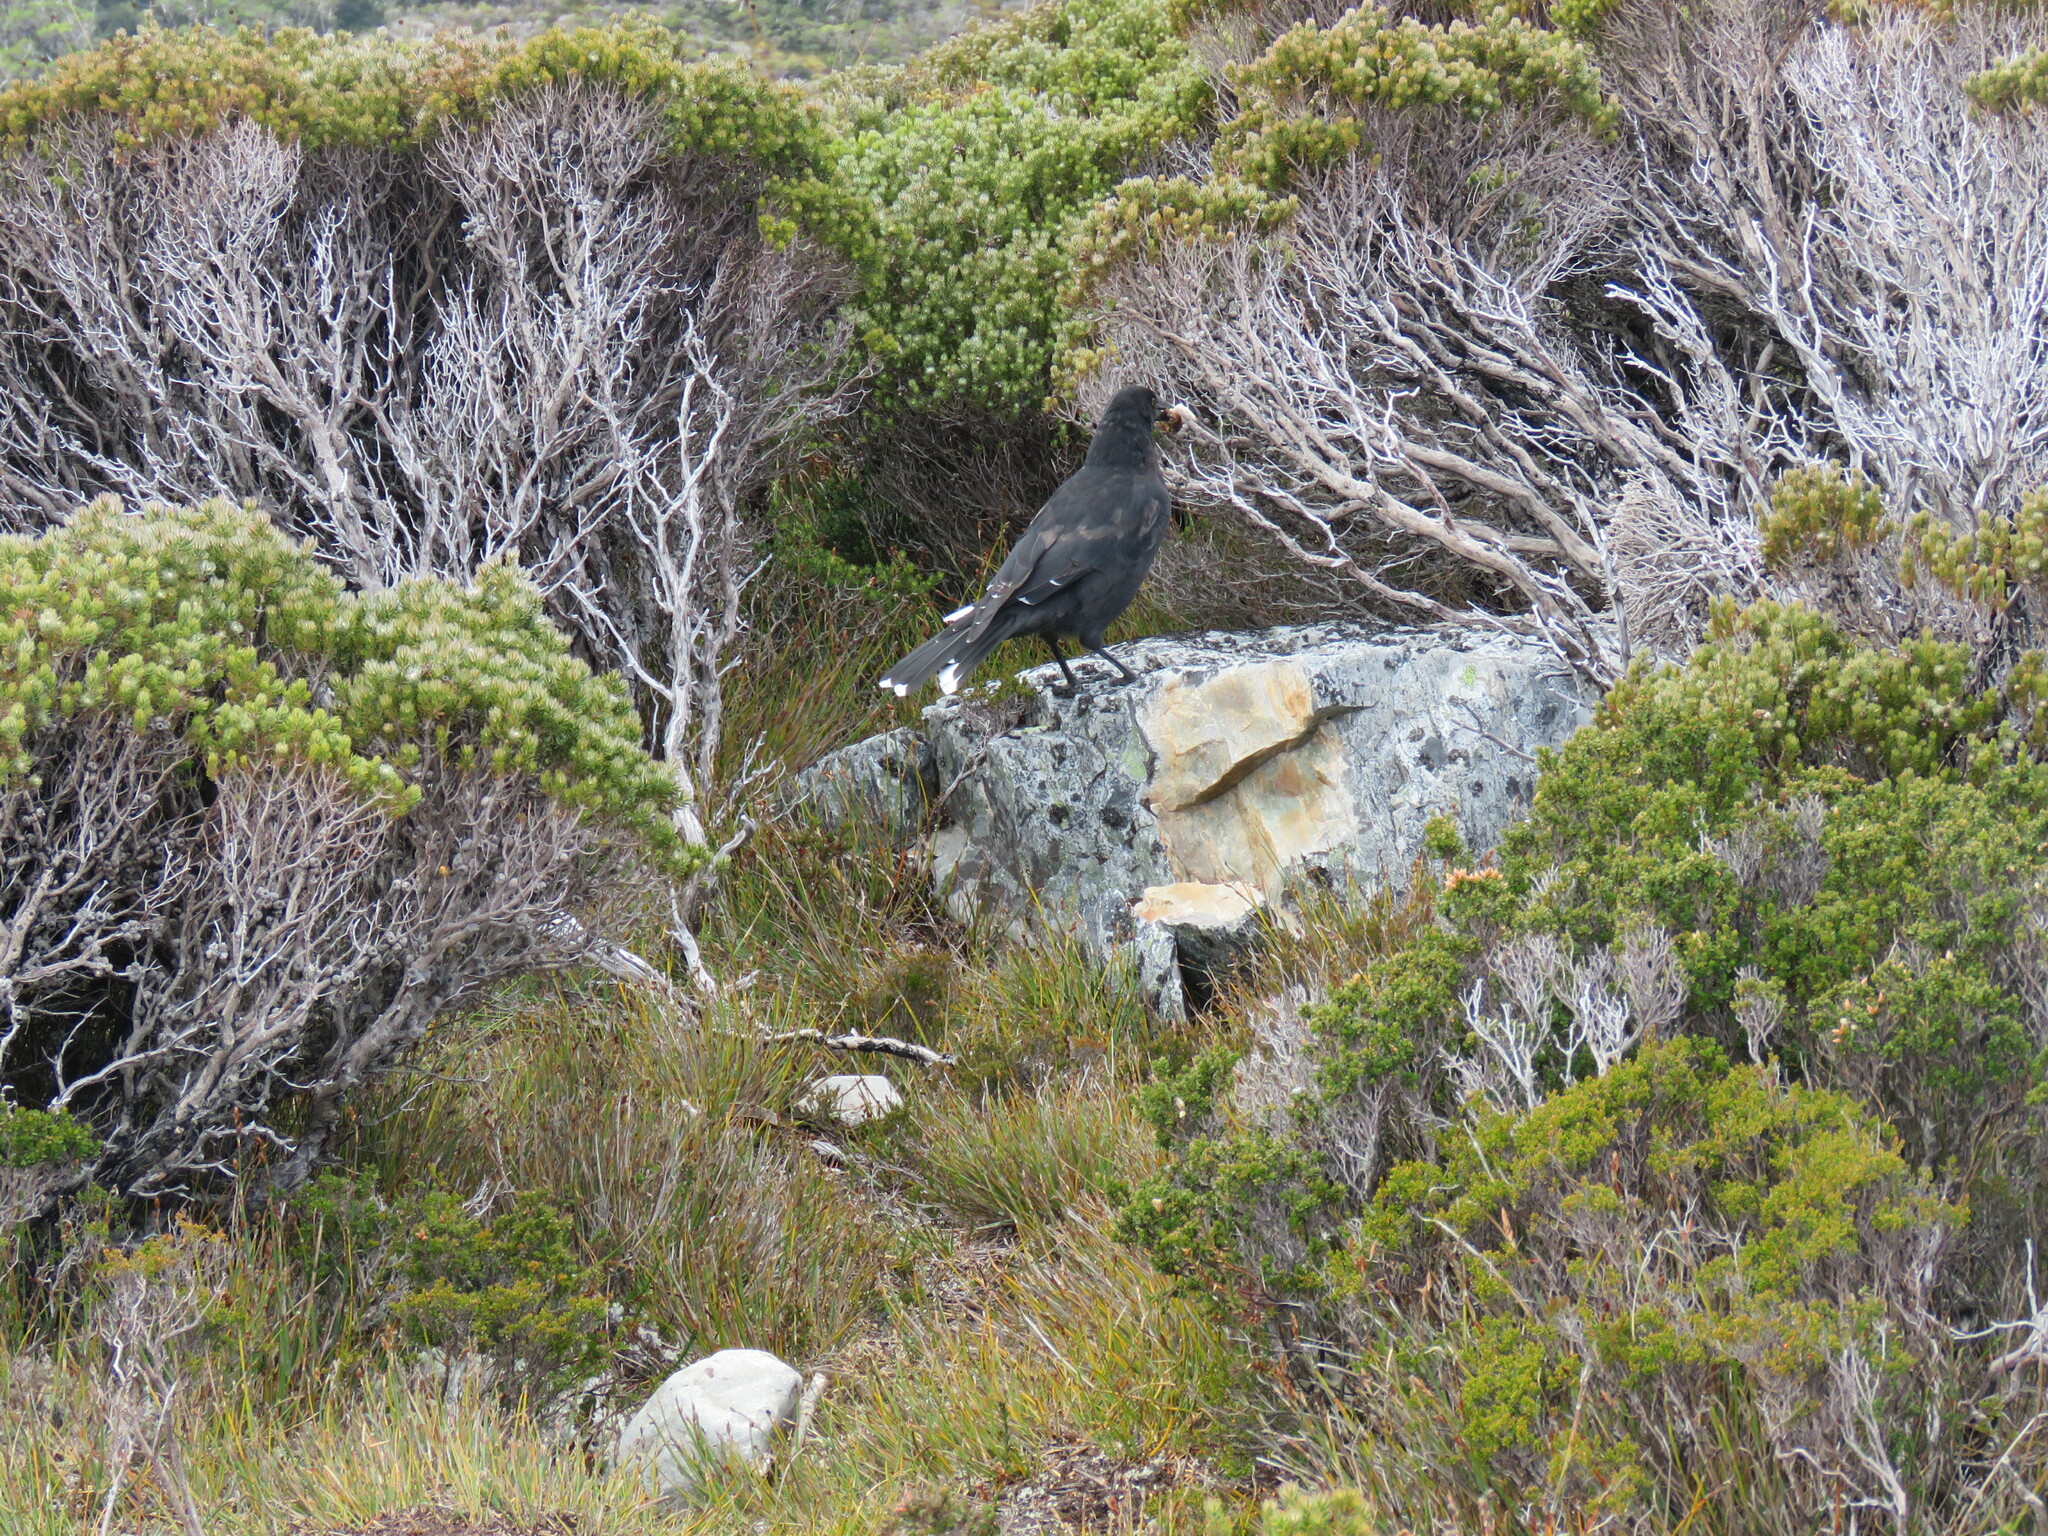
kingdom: Animalia
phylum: Chordata
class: Aves
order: Passeriformes
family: Cracticidae
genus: Strepera
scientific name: Strepera fuliginosa
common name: Black currawong
